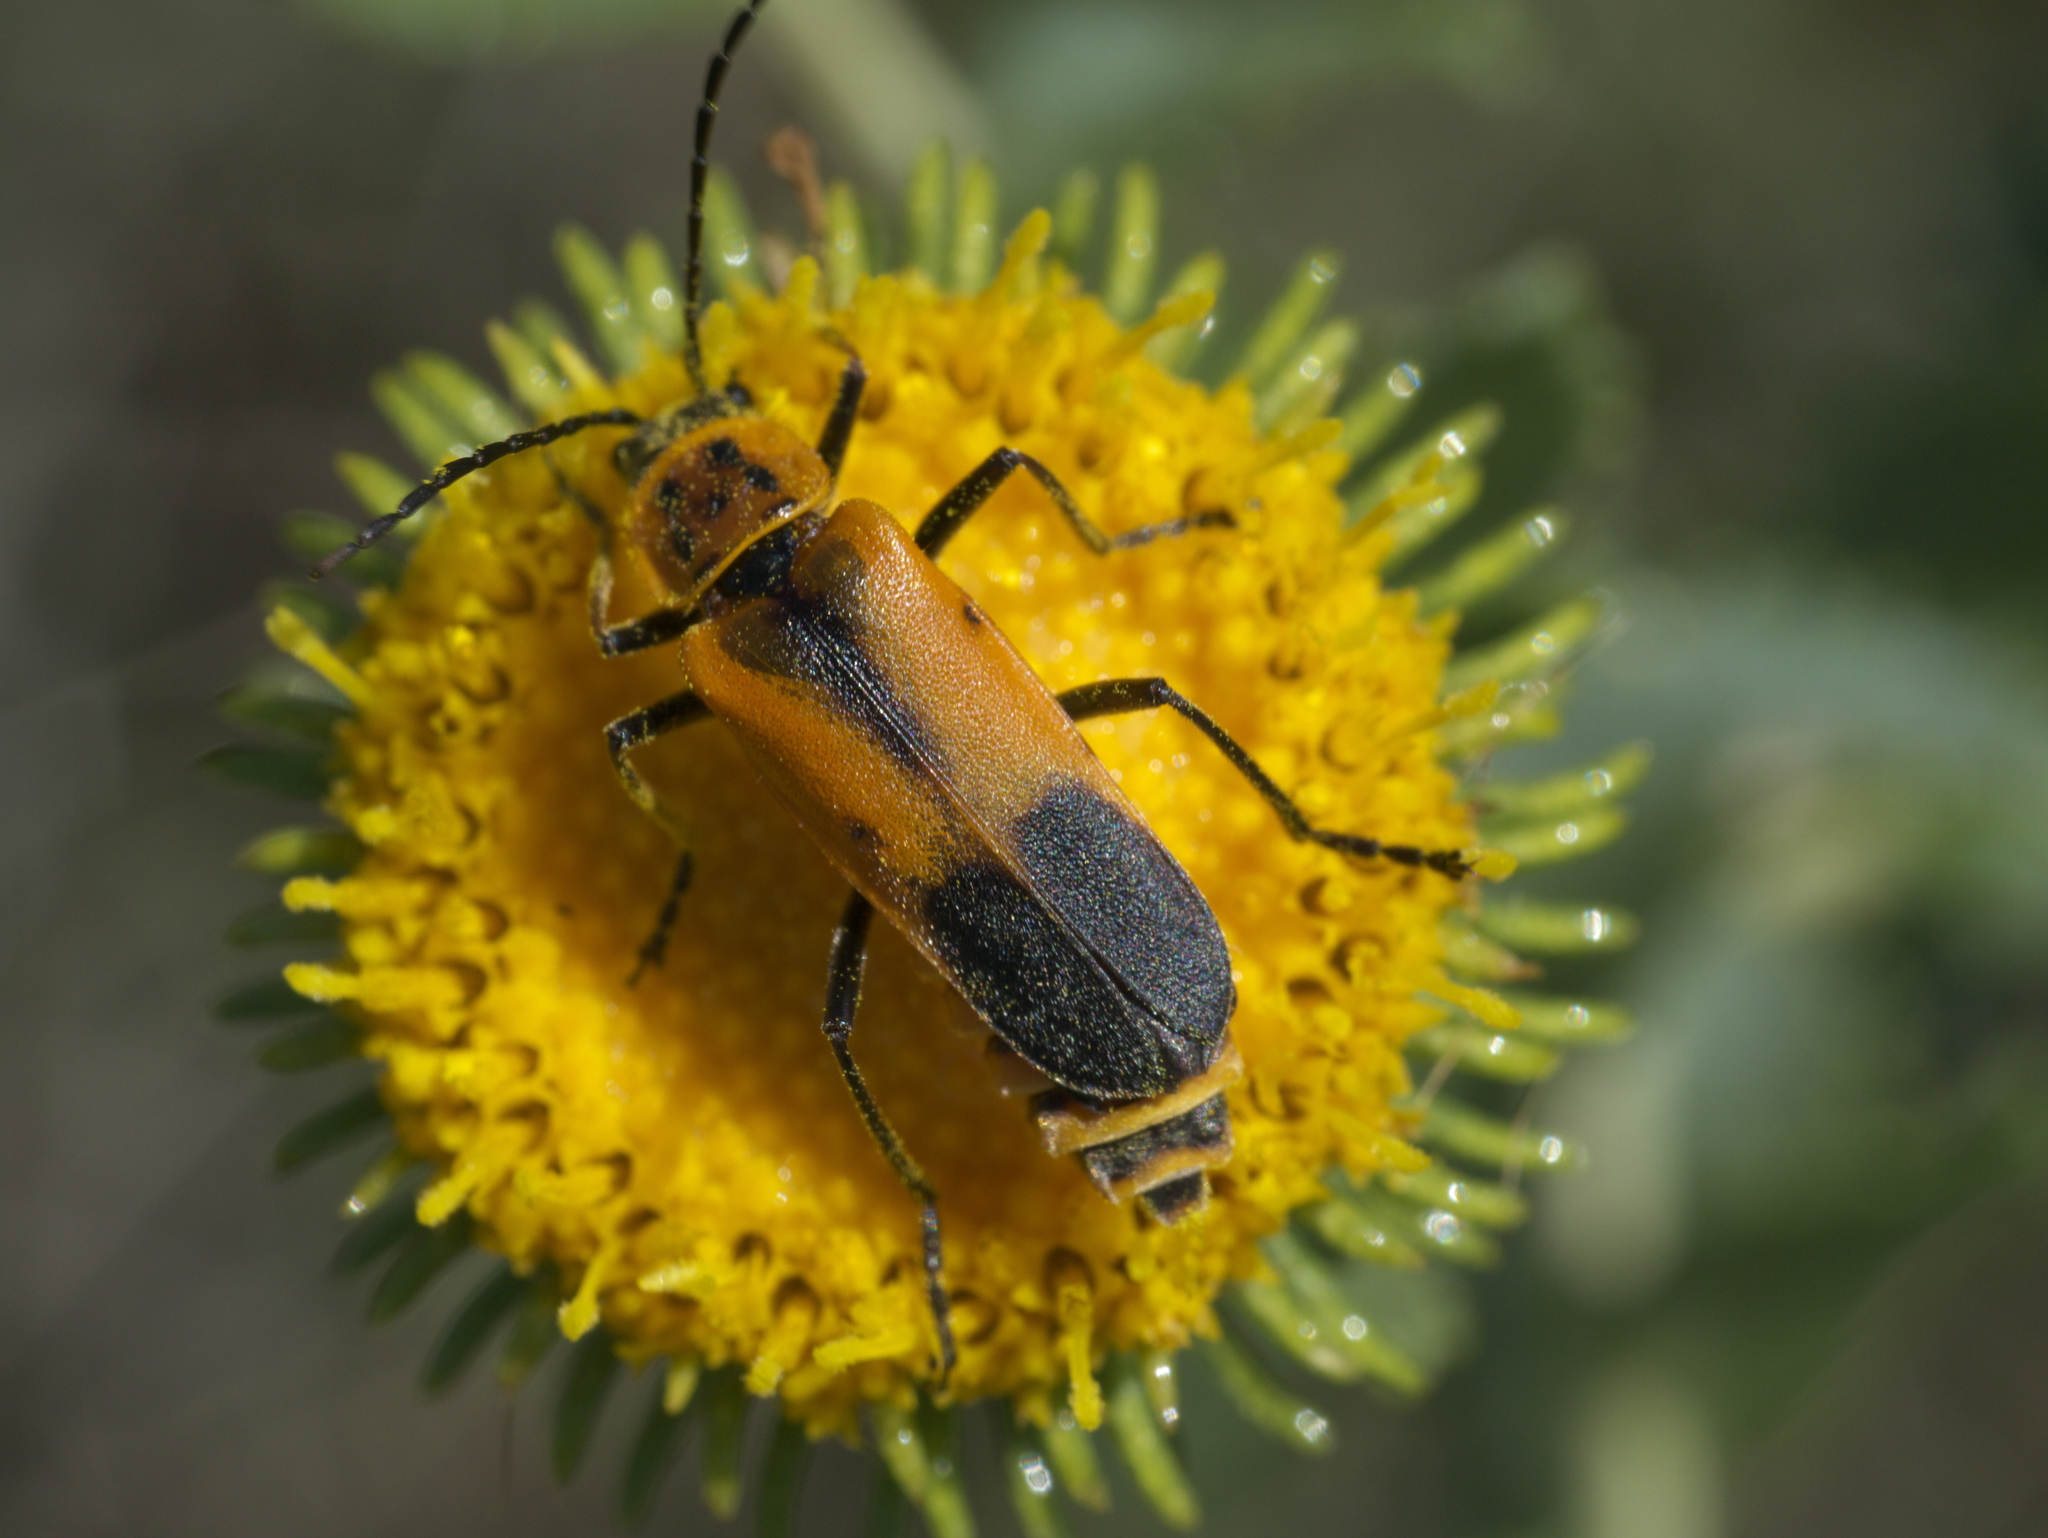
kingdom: Animalia
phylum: Arthropoda
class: Insecta
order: Coleoptera
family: Cantharidae
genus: Chauliognathus
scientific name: Chauliognathus limbicollis
